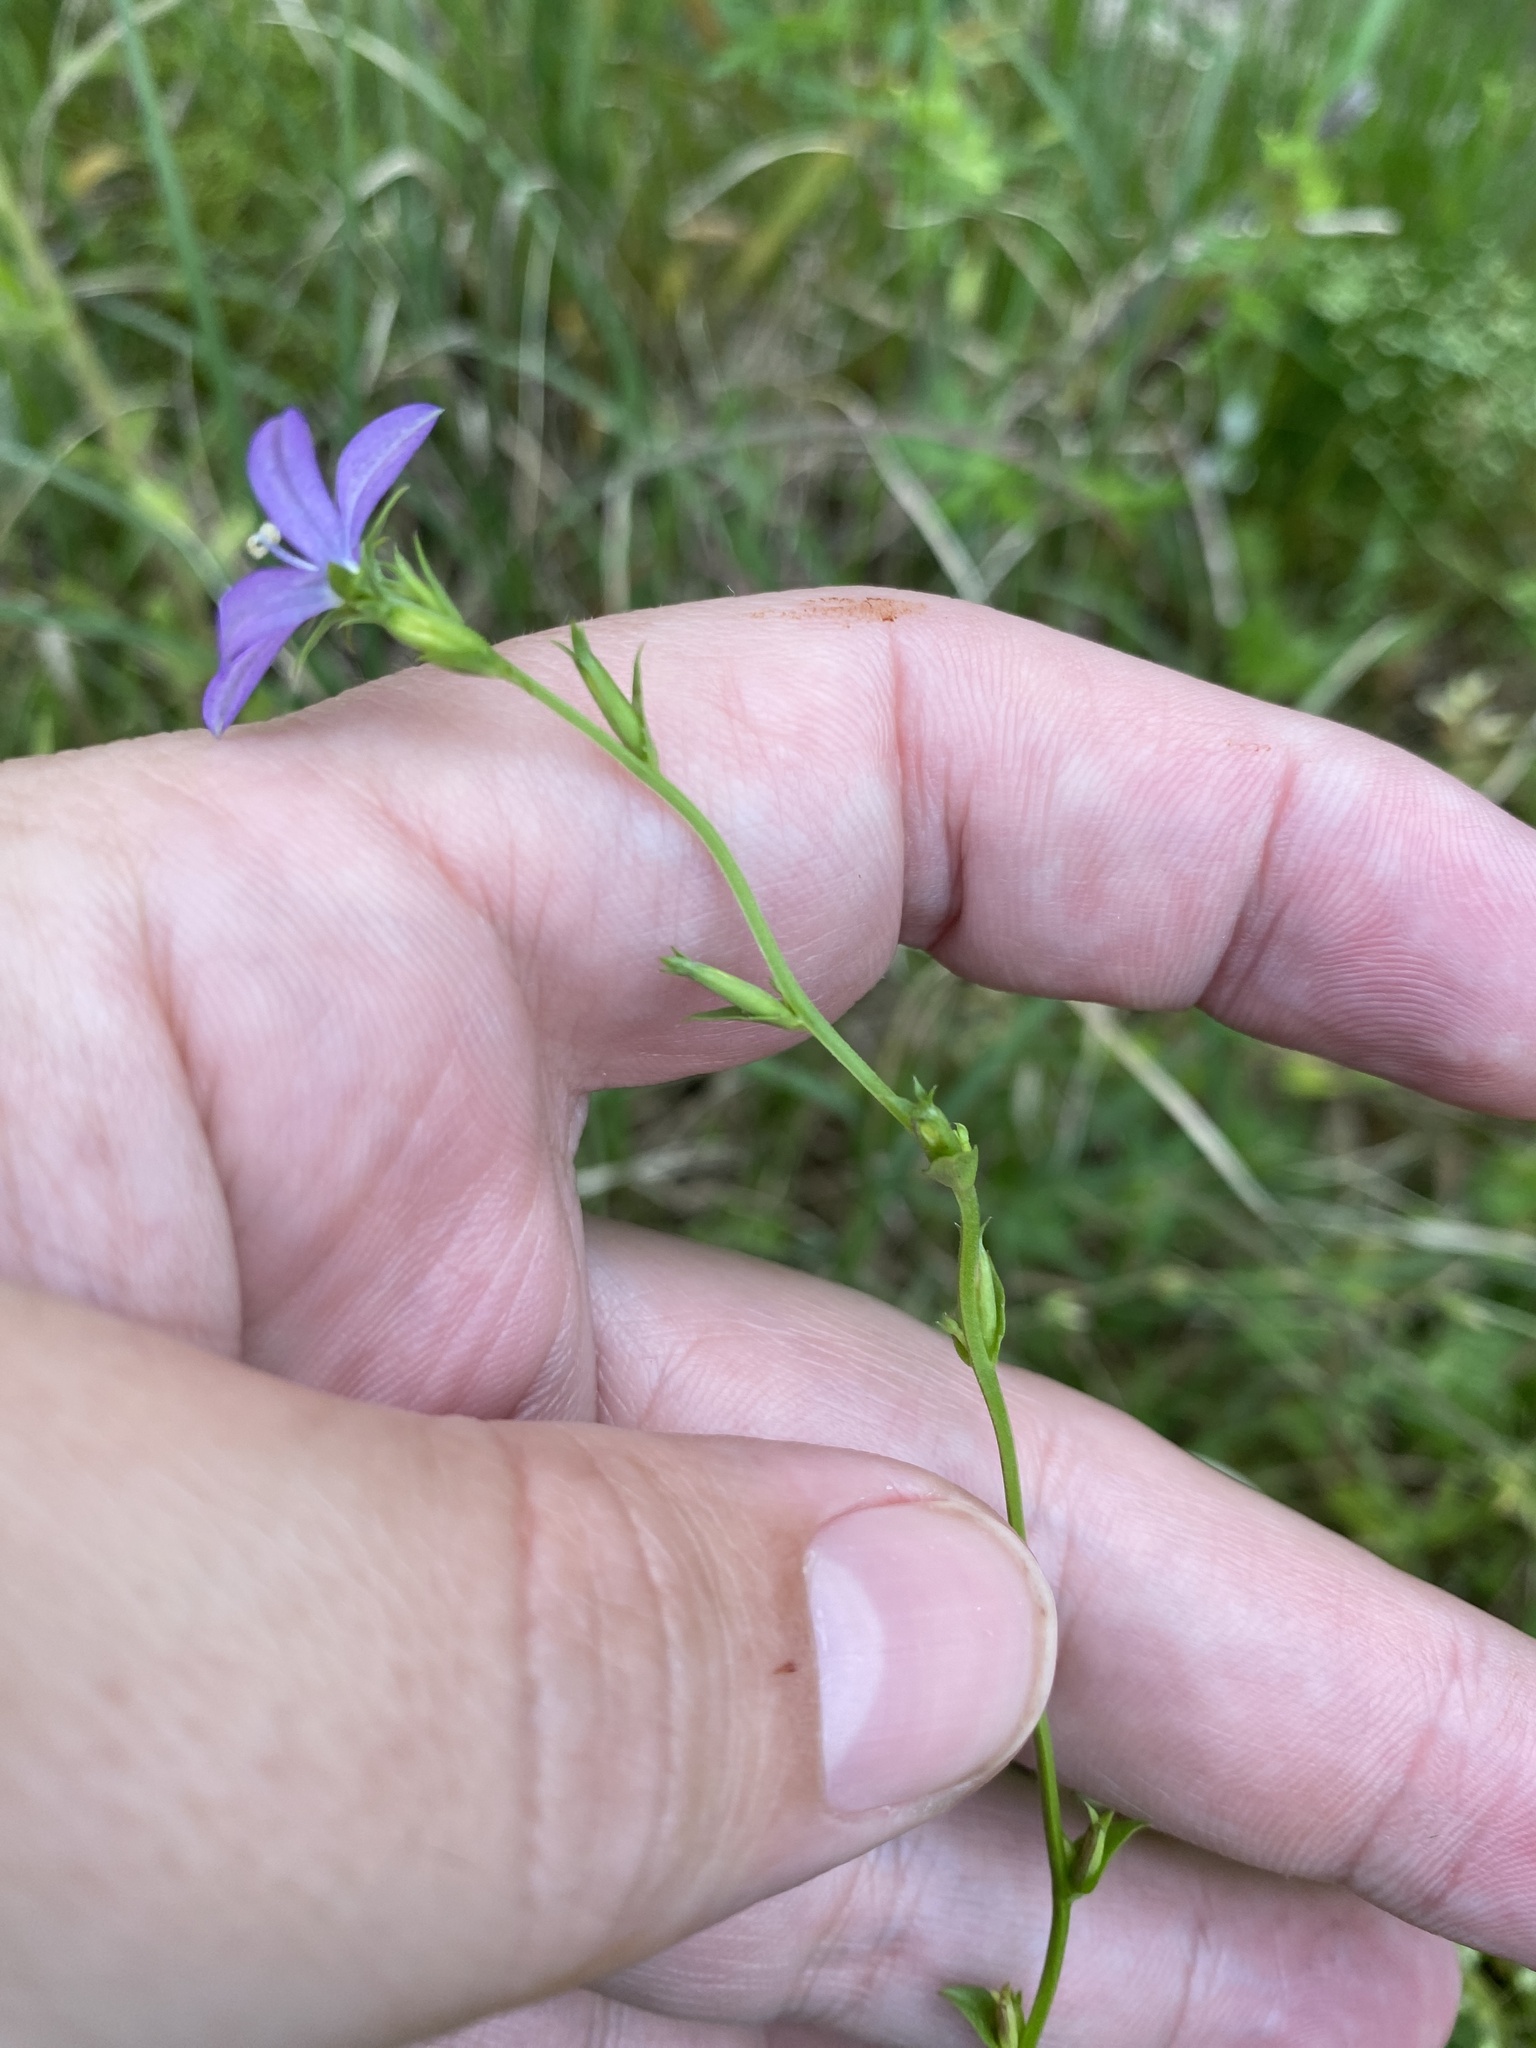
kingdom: Plantae
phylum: Tracheophyta
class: Magnoliopsida
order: Asterales
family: Campanulaceae
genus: Triodanis
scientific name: Triodanis biflora
